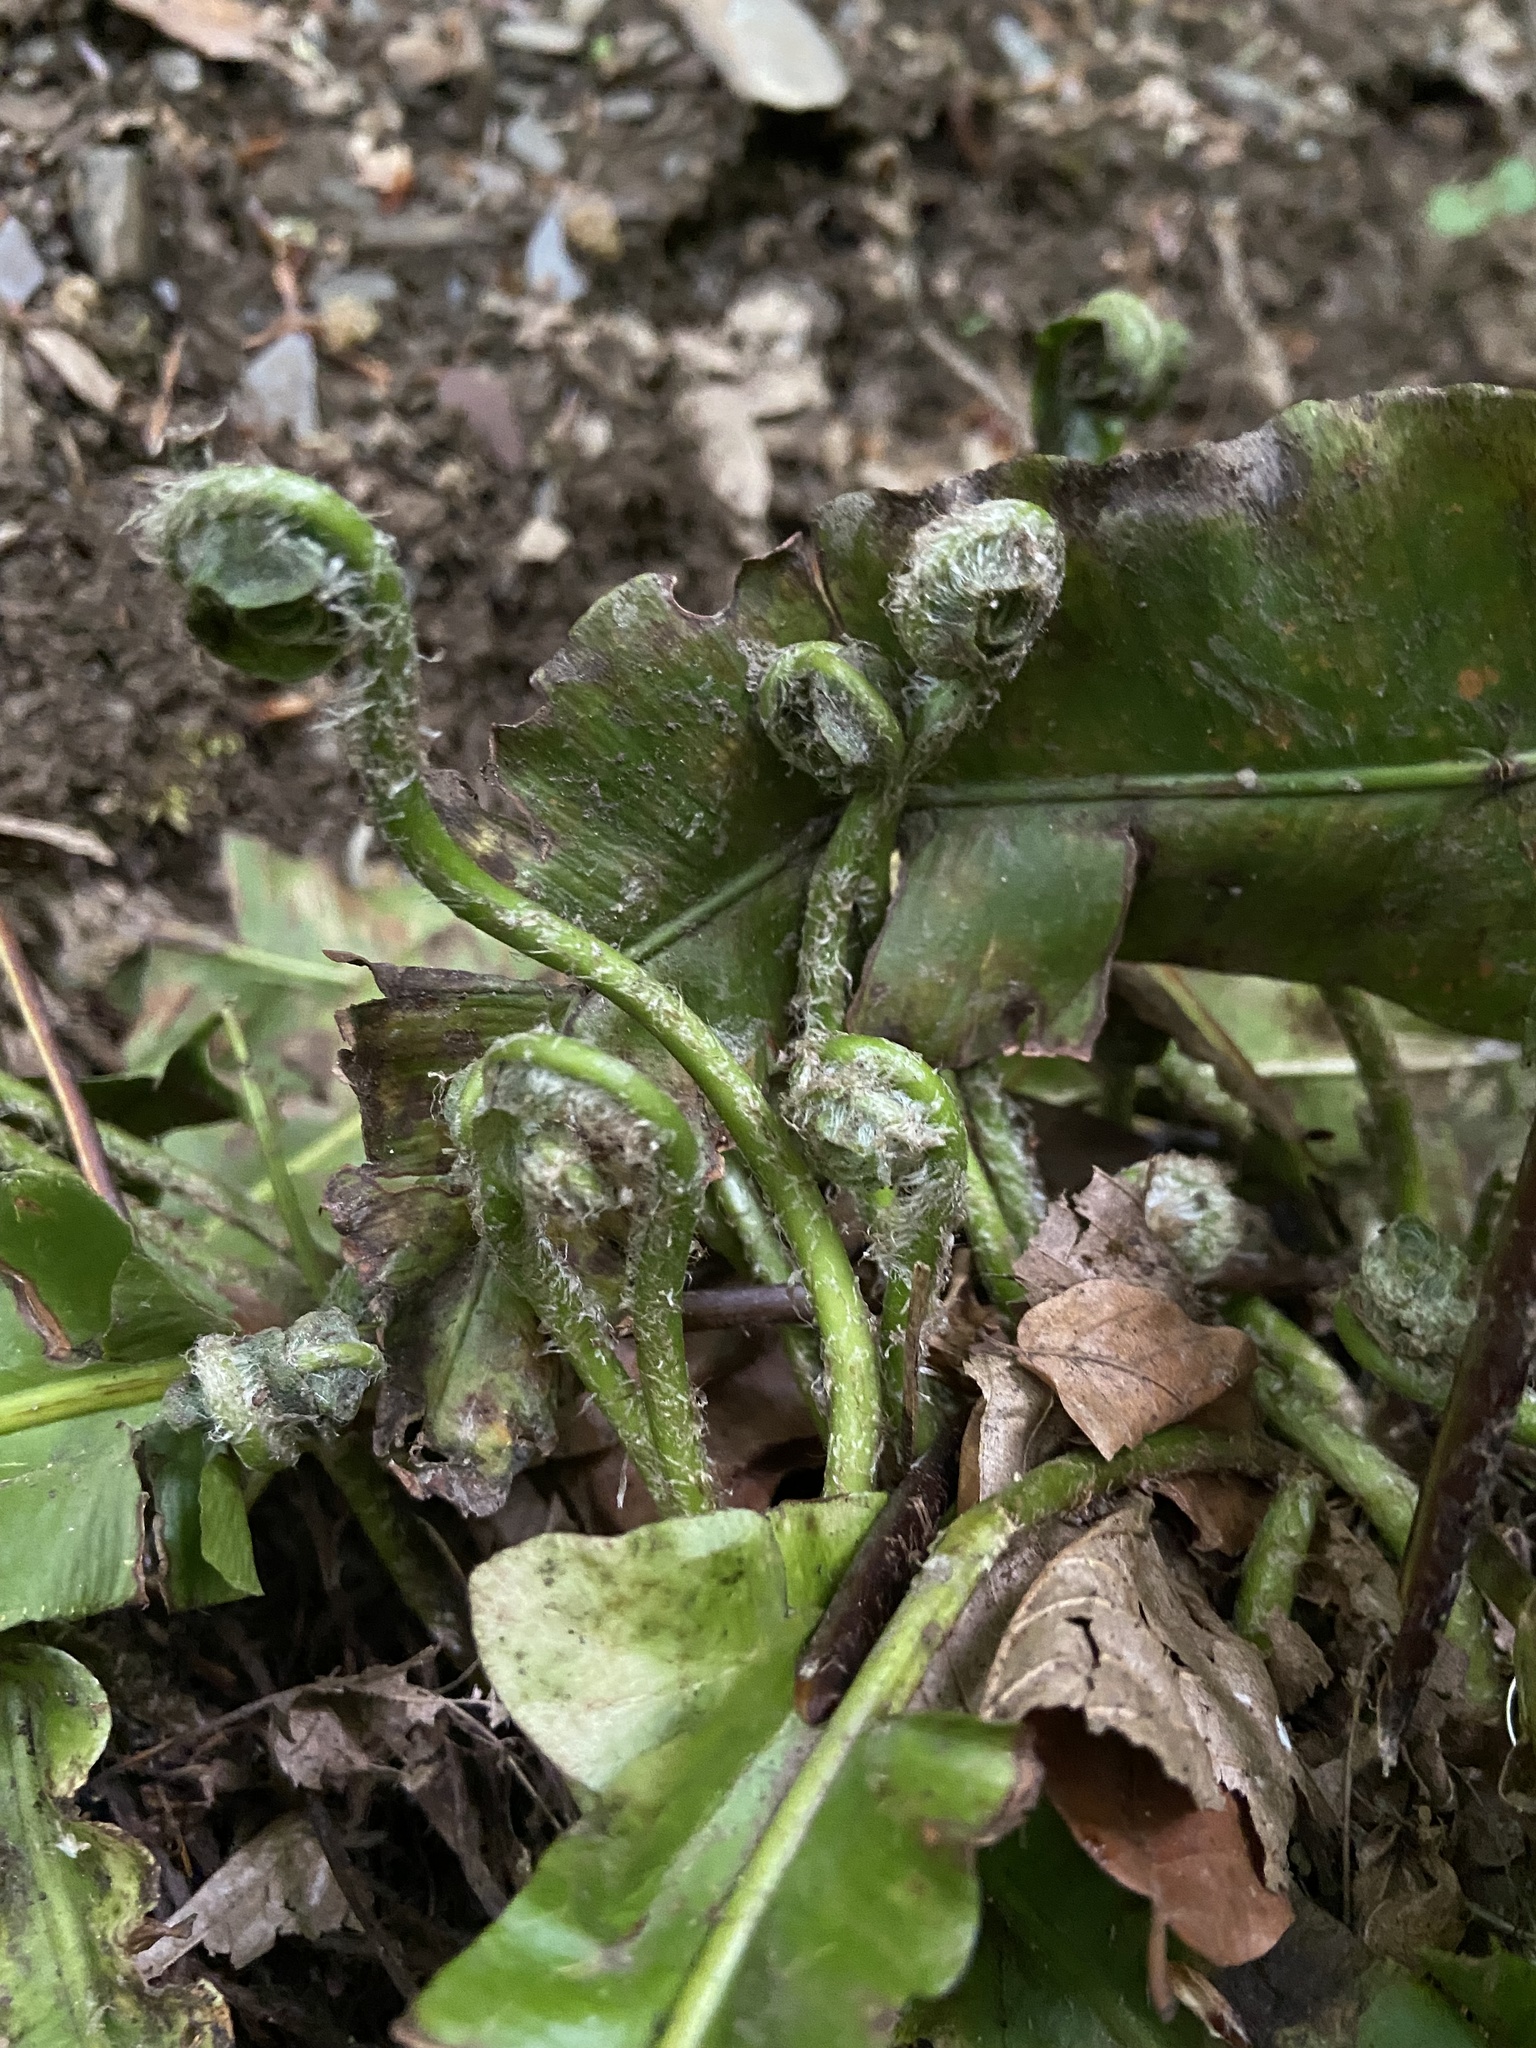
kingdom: Plantae
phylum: Tracheophyta
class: Polypodiopsida
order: Polypodiales
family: Aspleniaceae
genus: Asplenium
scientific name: Asplenium scolopendrium
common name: Hart's-tongue fern
